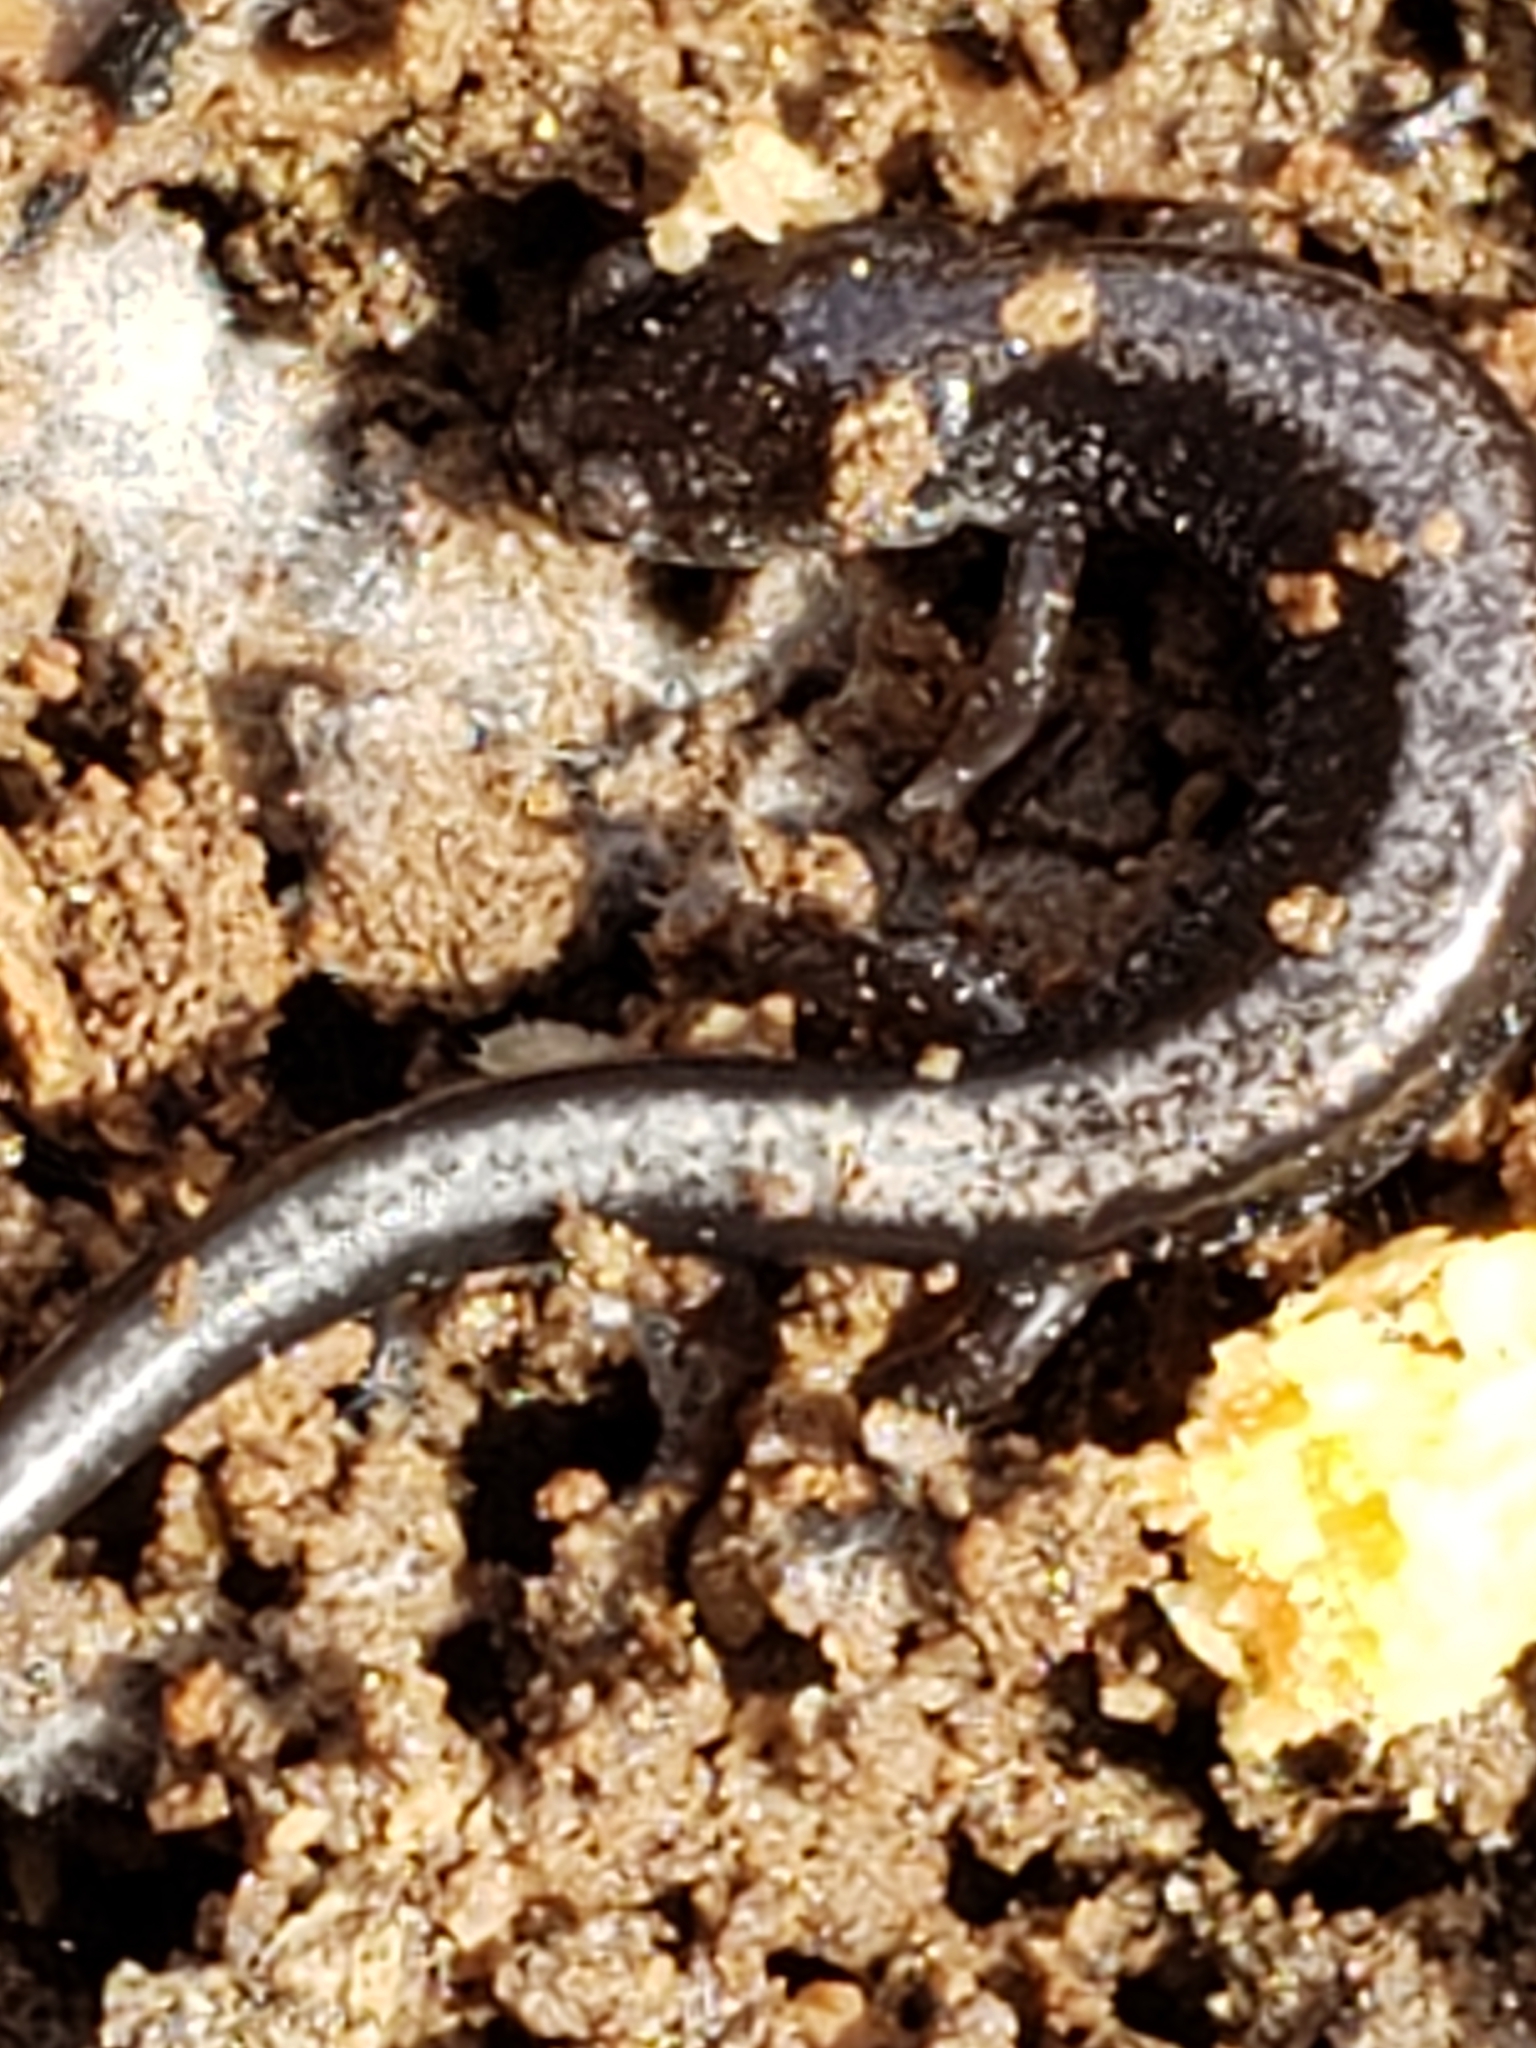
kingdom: Animalia
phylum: Chordata
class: Amphibia
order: Caudata
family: Plethodontidae
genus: Plethodon
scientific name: Plethodon cinereus
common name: Redback salamander
